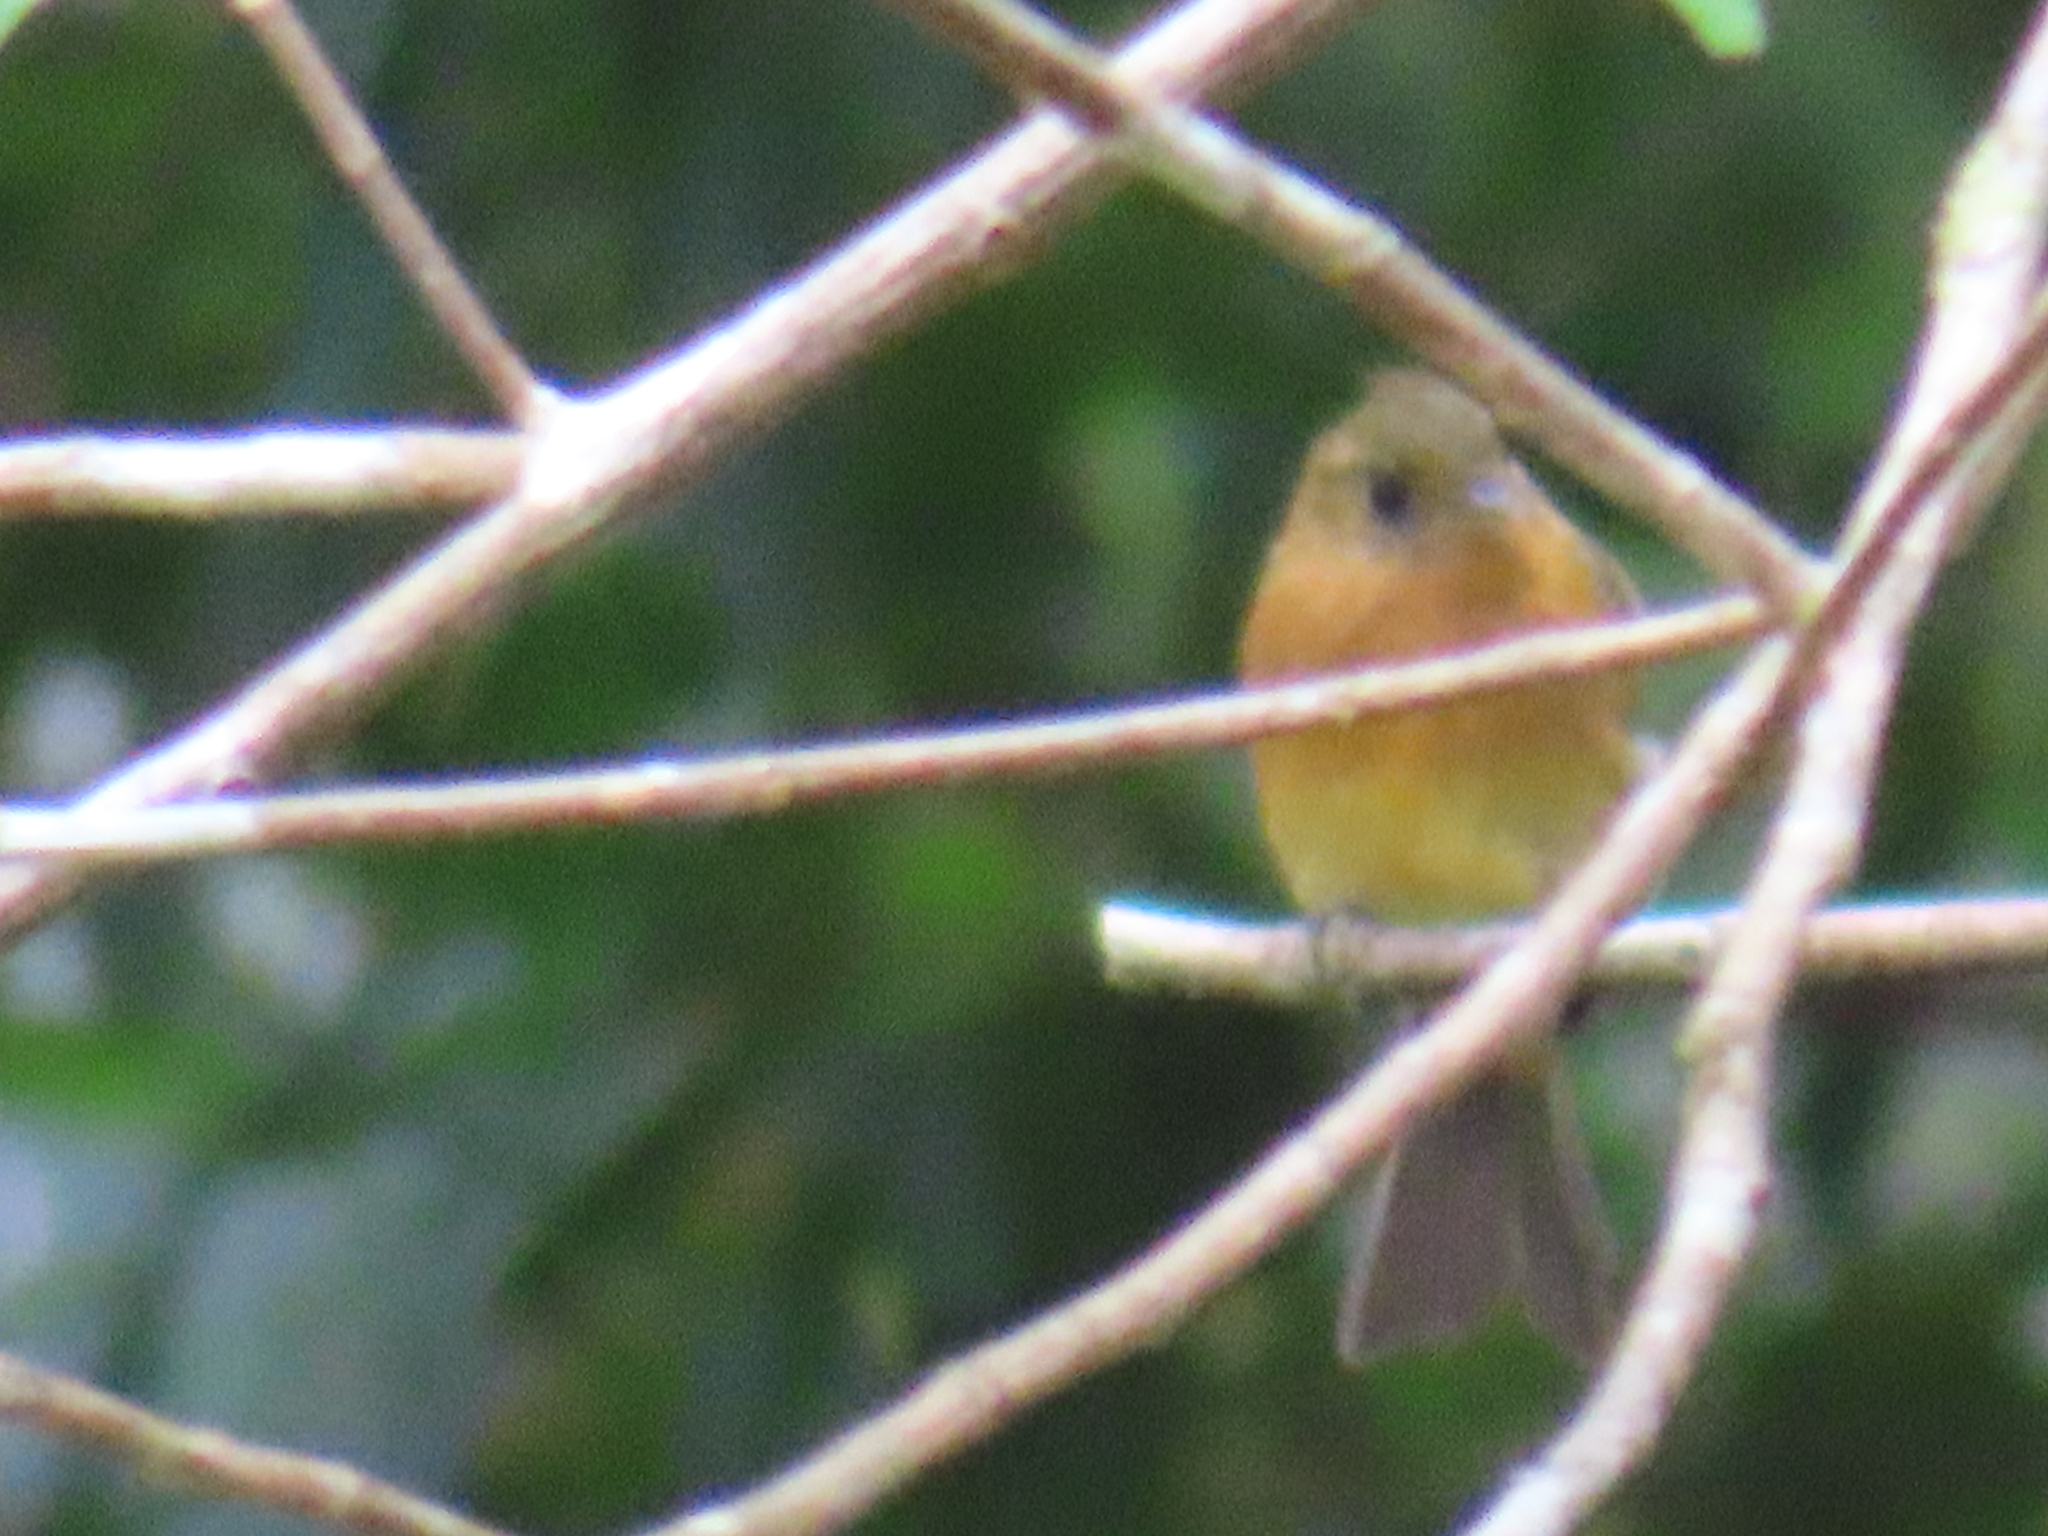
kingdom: Animalia
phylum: Chordata
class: Aves
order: Passeriformes
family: Tyrannidae
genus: Mitrephanes
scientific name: Mitrephanes phaeocercus
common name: Northern tufted flycatcher
